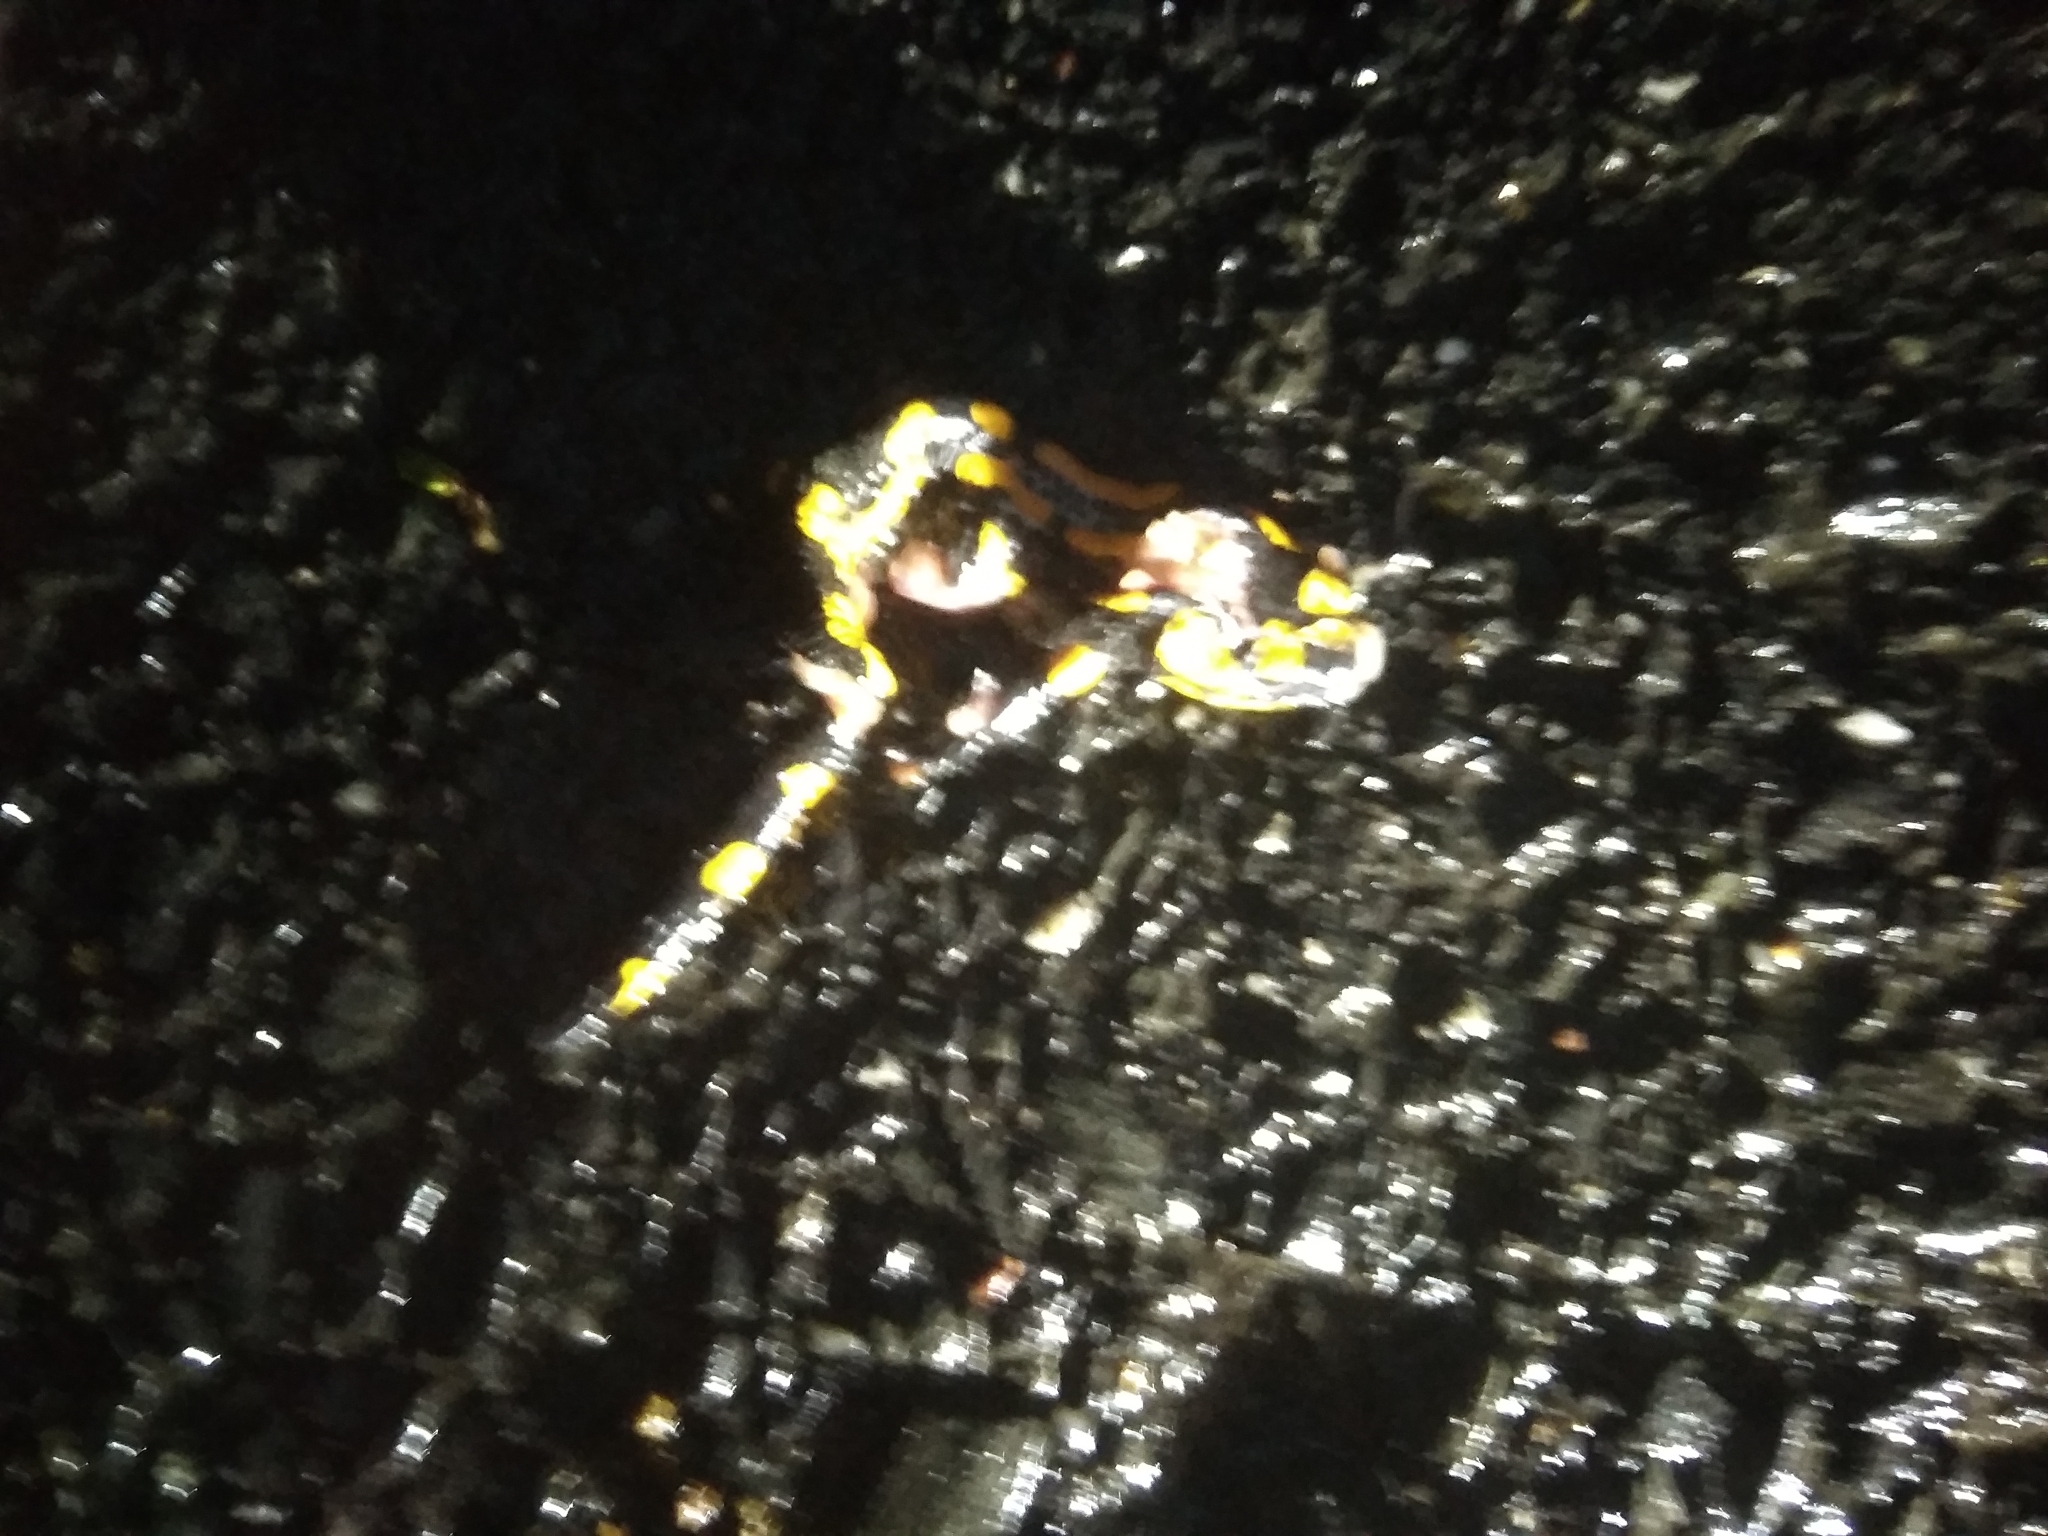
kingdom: Animalia
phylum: Chordata
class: Amphibia
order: Caudata
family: Salamandridae
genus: Salamandra
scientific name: Salamandra salamandra
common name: Fire salamander
